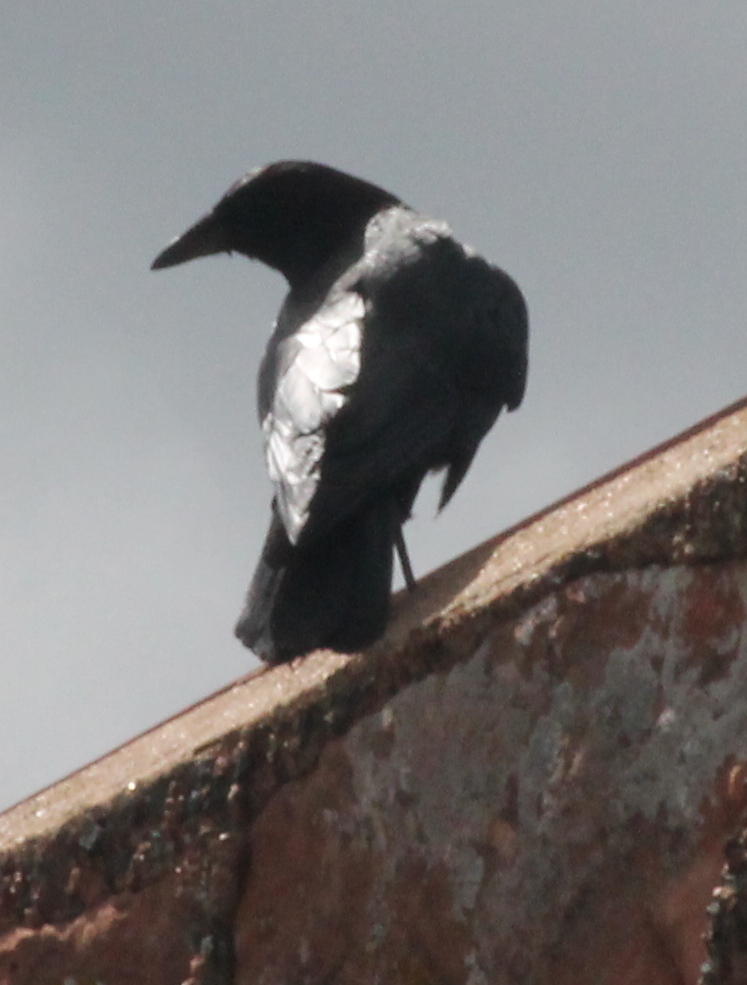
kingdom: Animalia
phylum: Chordata
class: Aves
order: Passeriformes
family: Corvidae
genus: Corvus
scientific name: Corvus brachyrhynchos
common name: American crow
